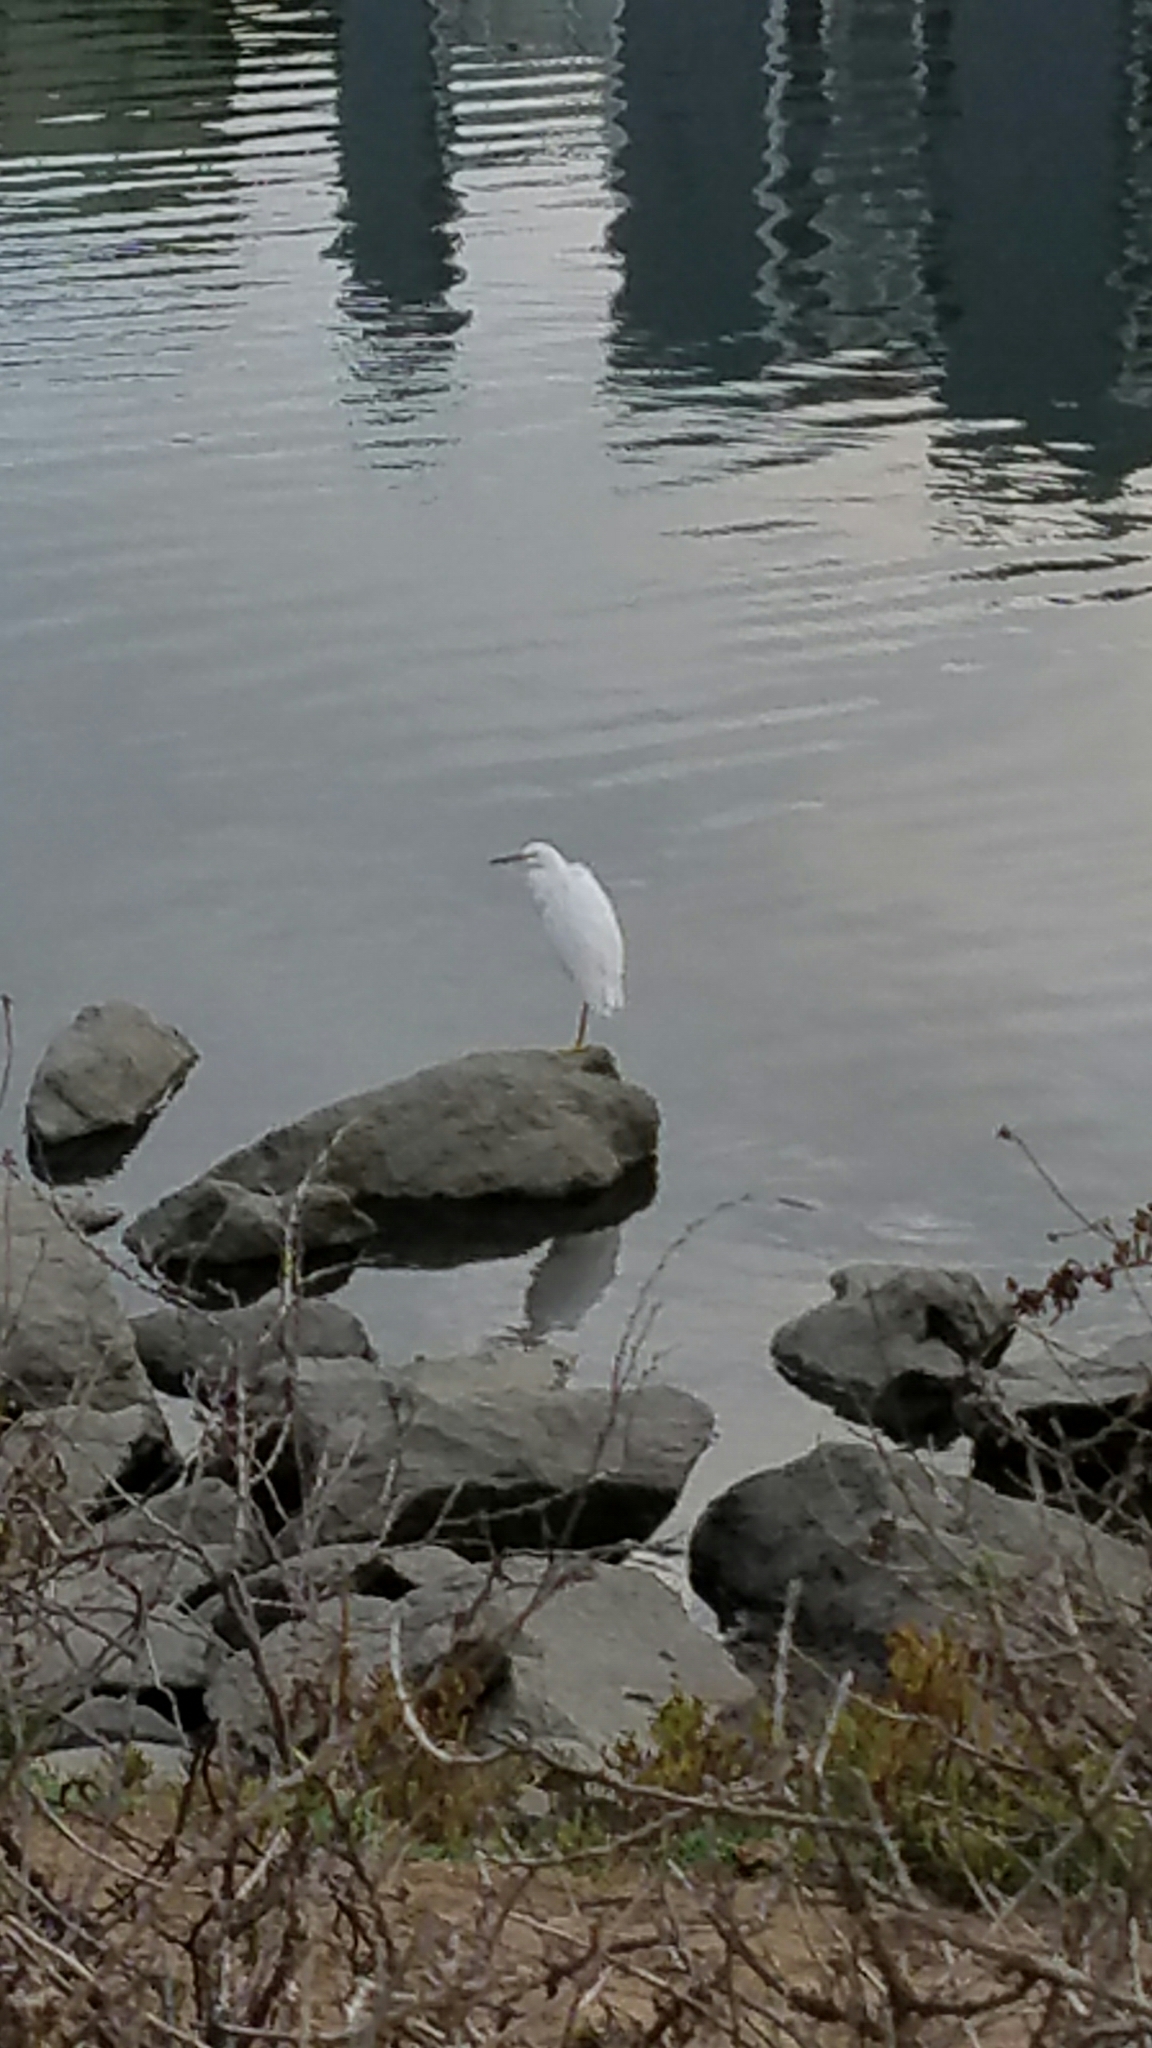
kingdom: Animalia
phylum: Chordata
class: Aves
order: Pelecaniformes
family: Ardeidae
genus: Egretta
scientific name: Egretta thula
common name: Snowy egret
